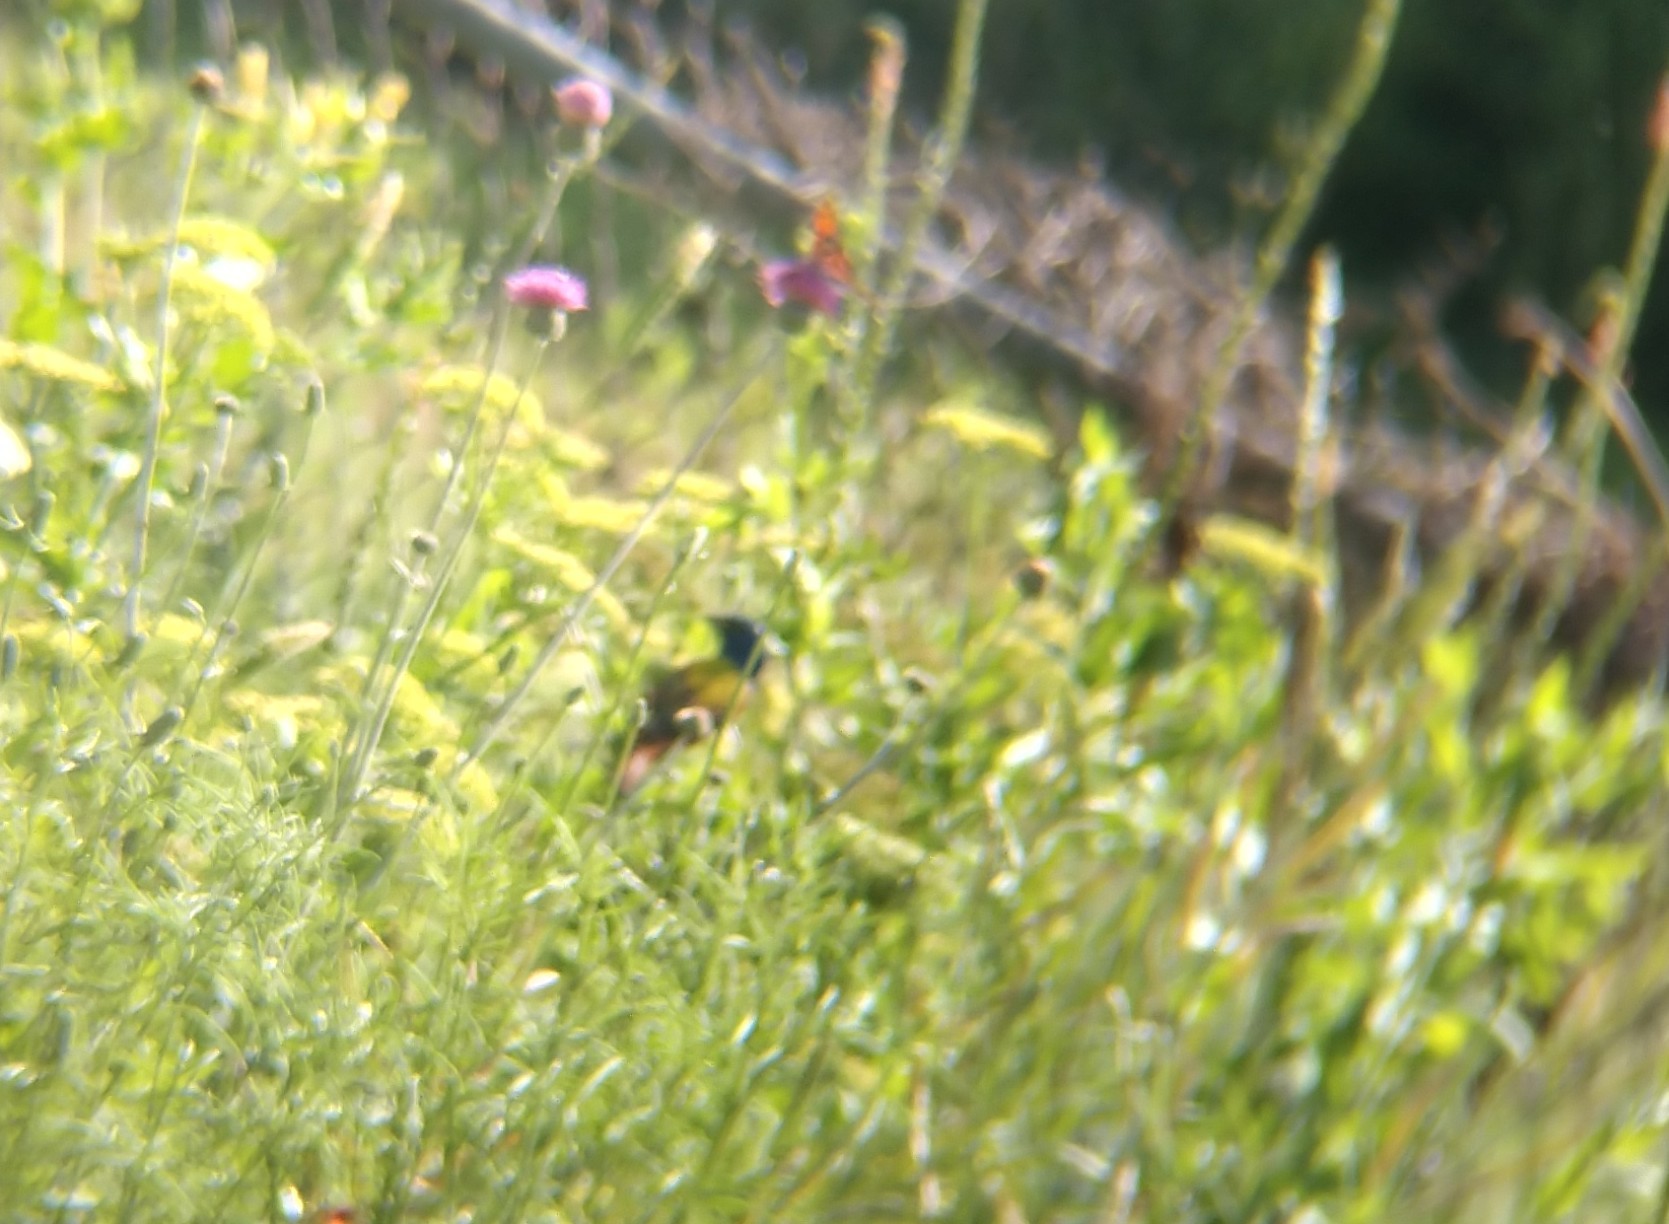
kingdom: Animalia
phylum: Chordata
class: Aves
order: Passeriformes
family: Cardinalidae
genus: Passerina
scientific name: Passerina ciris
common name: Painted bunting
